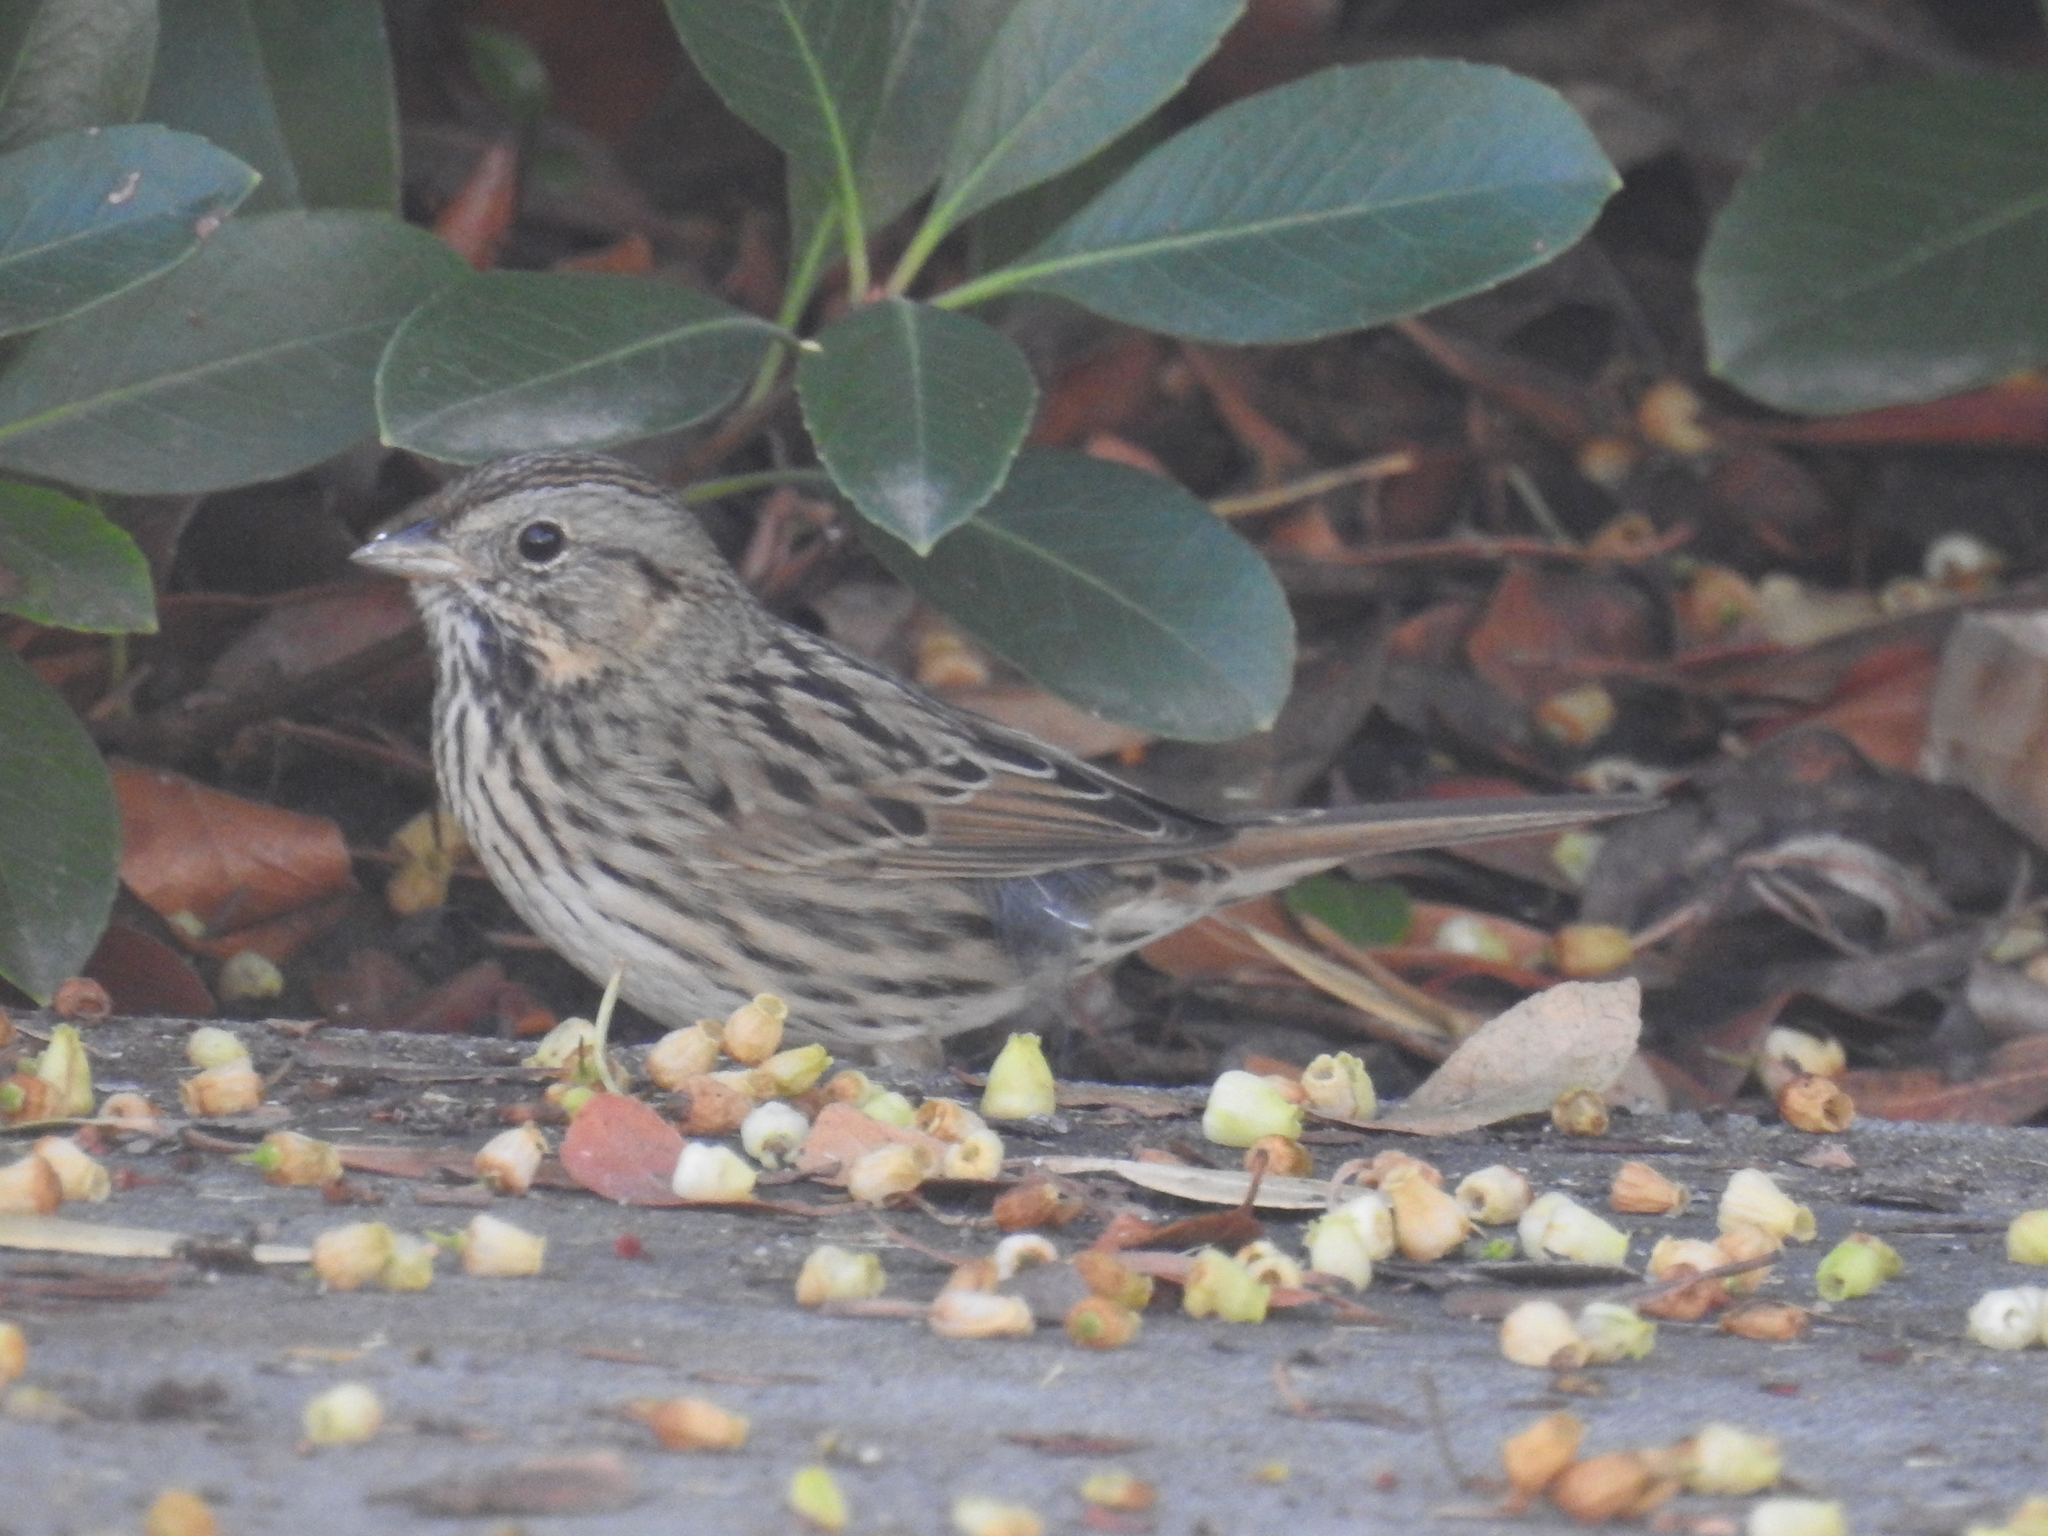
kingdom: Animalia
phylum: Chordata
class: Aves
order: Passeriformes
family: Passerellidae
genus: Melospiza
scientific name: Melospiza lincolnii
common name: Lincoln's sparrow
